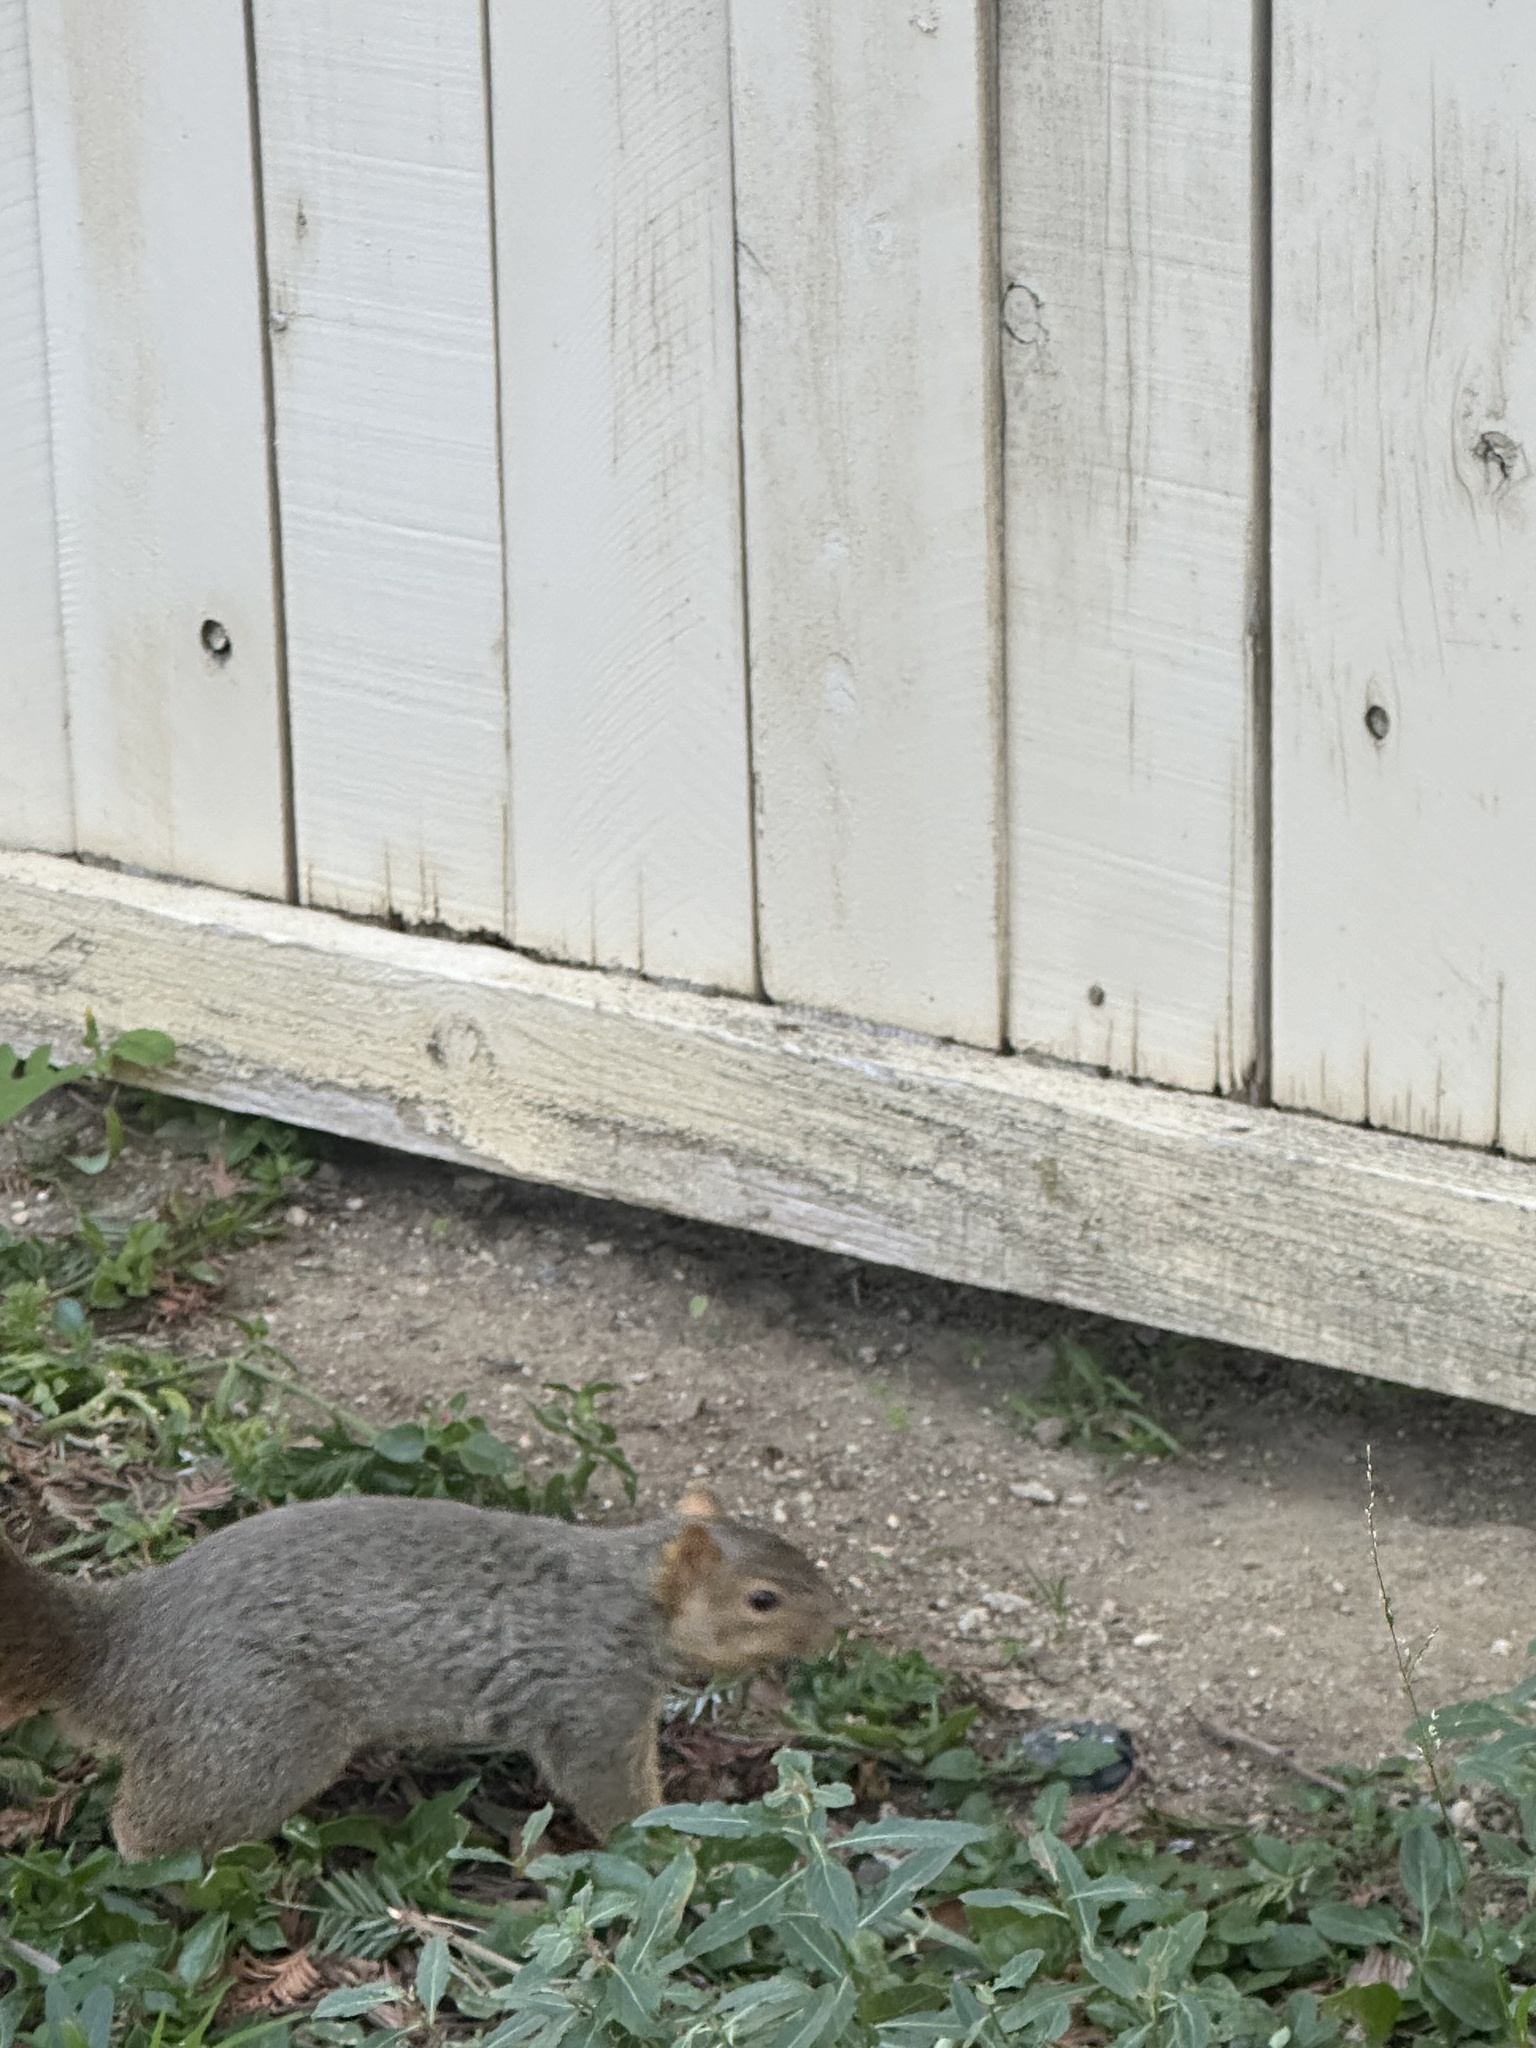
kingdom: Animalia
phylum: Chordata
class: Mammalia
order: Rodentia
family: Sciuridae
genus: Sciurus
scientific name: Sciurus niger
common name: Fox squirrel
